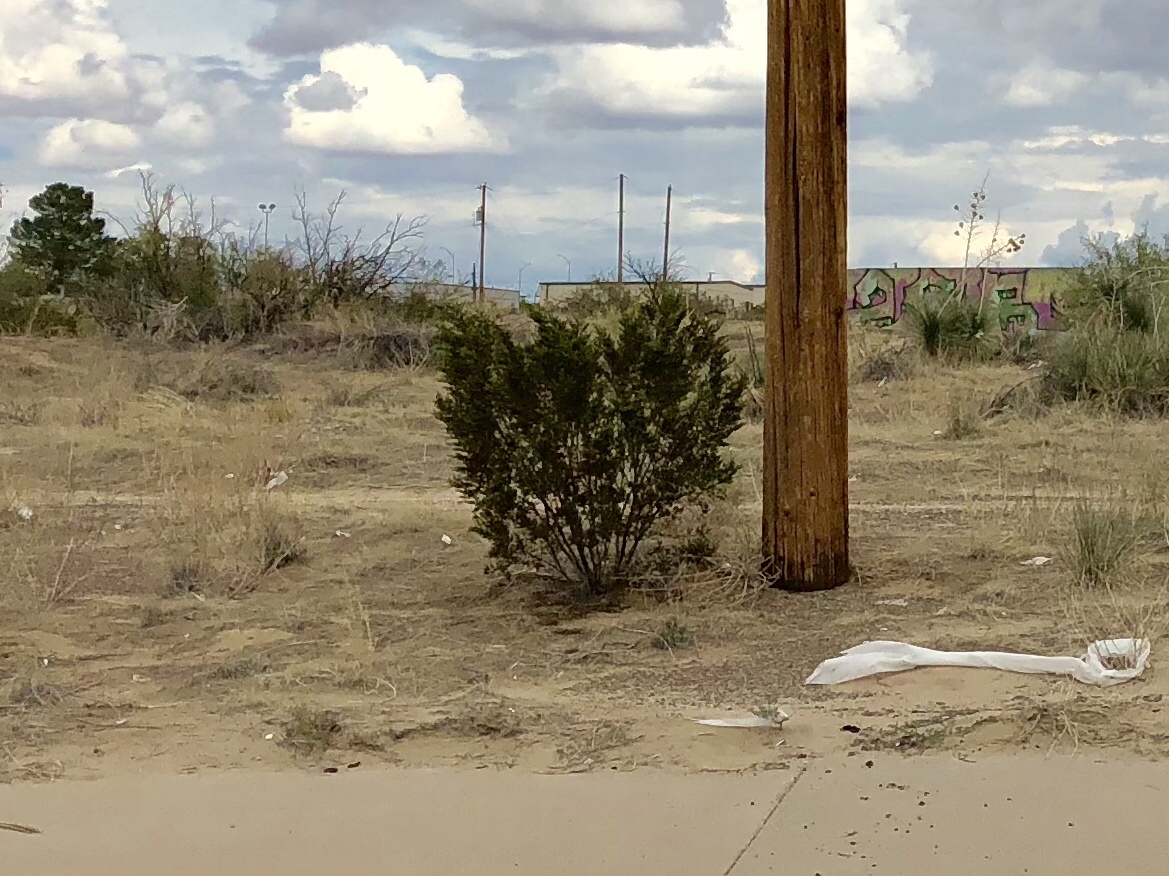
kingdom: Plantae
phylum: Tracheophyta
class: Magnoliopsida
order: Zygophyllales
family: Zygophyllaceae
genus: Larrea
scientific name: Larrea tridentata
